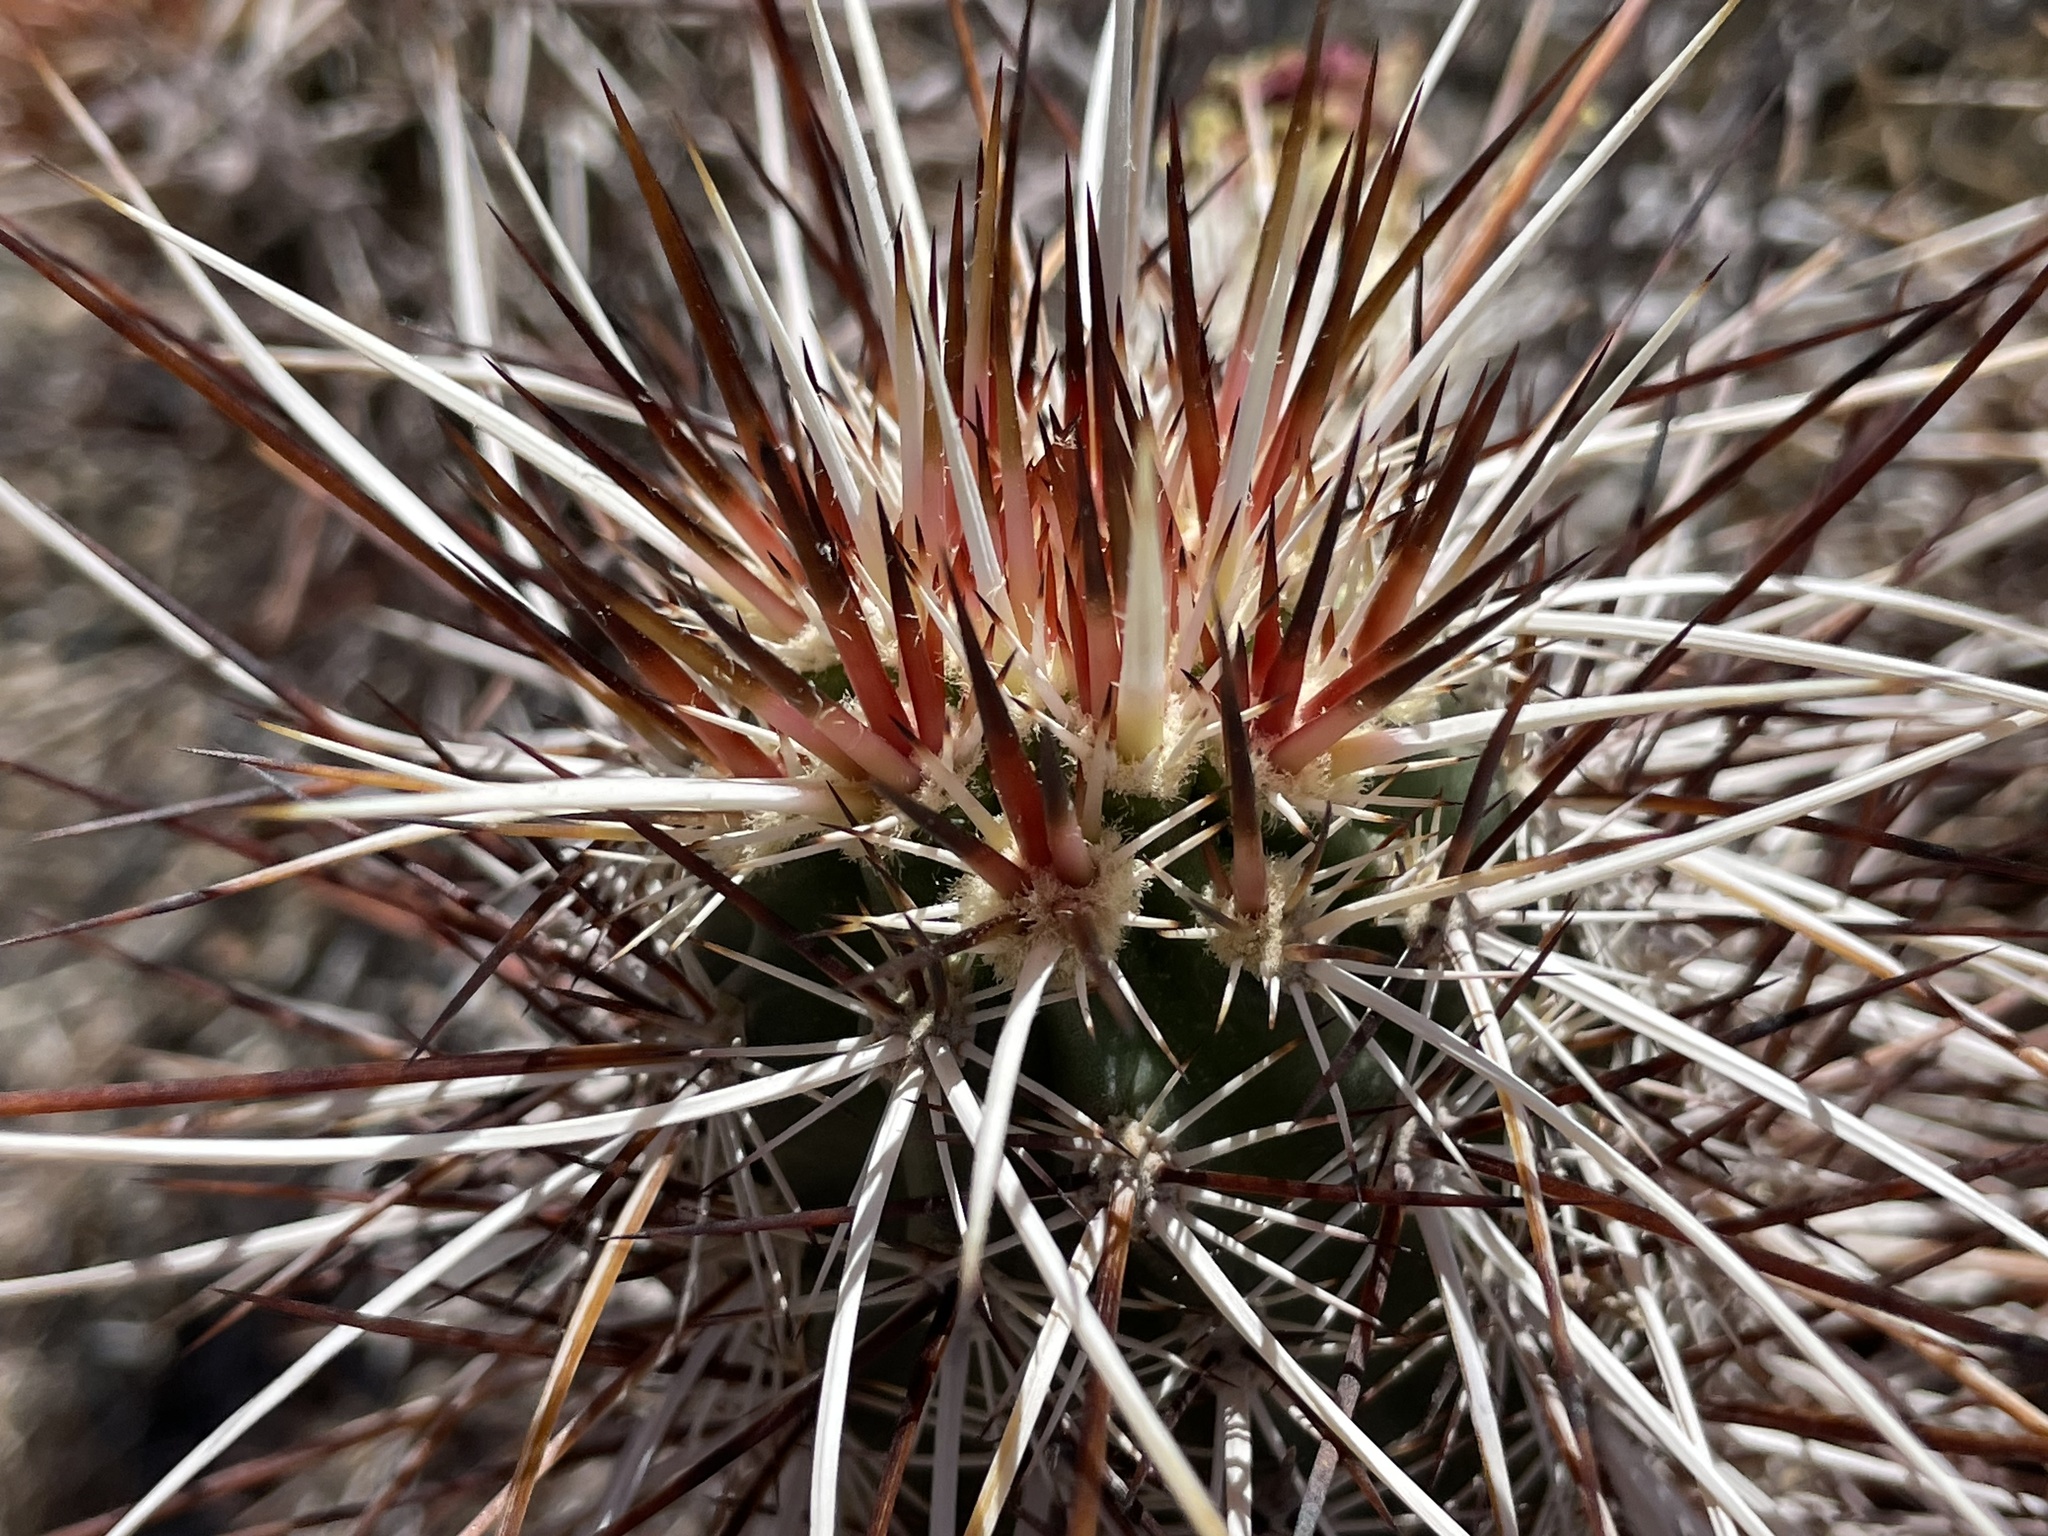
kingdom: Plantae
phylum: Tracheophyta
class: Magnoliopsida
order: Caryophyllales
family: Cactaceae
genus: Echinocereus
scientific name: Echinocereus engelmannii
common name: Engelmann's hedgehog cactus
